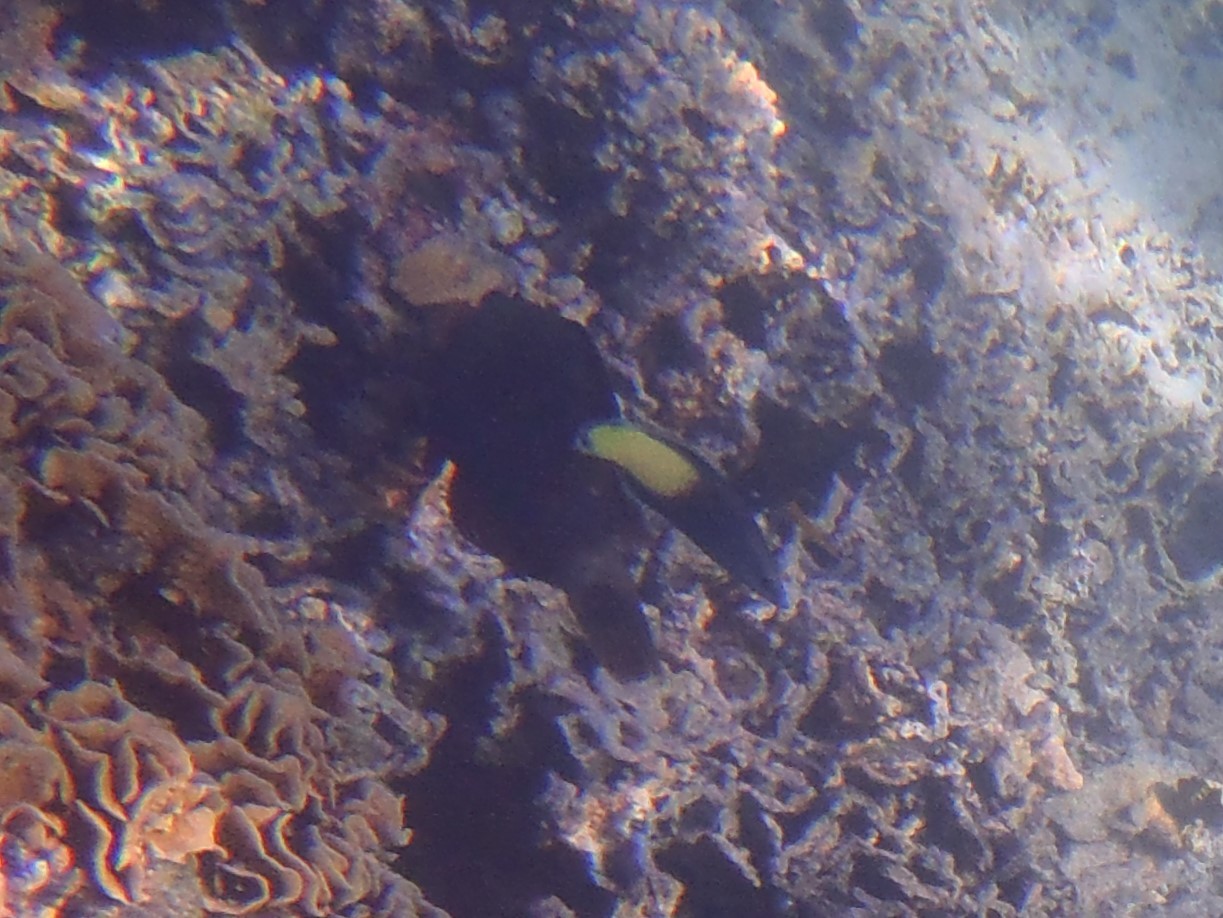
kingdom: Animalia
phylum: Chordata
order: Perciformes
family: Labridae
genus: Labroides
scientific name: Labroides bicolor
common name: Bicolor cleaner wrasse
